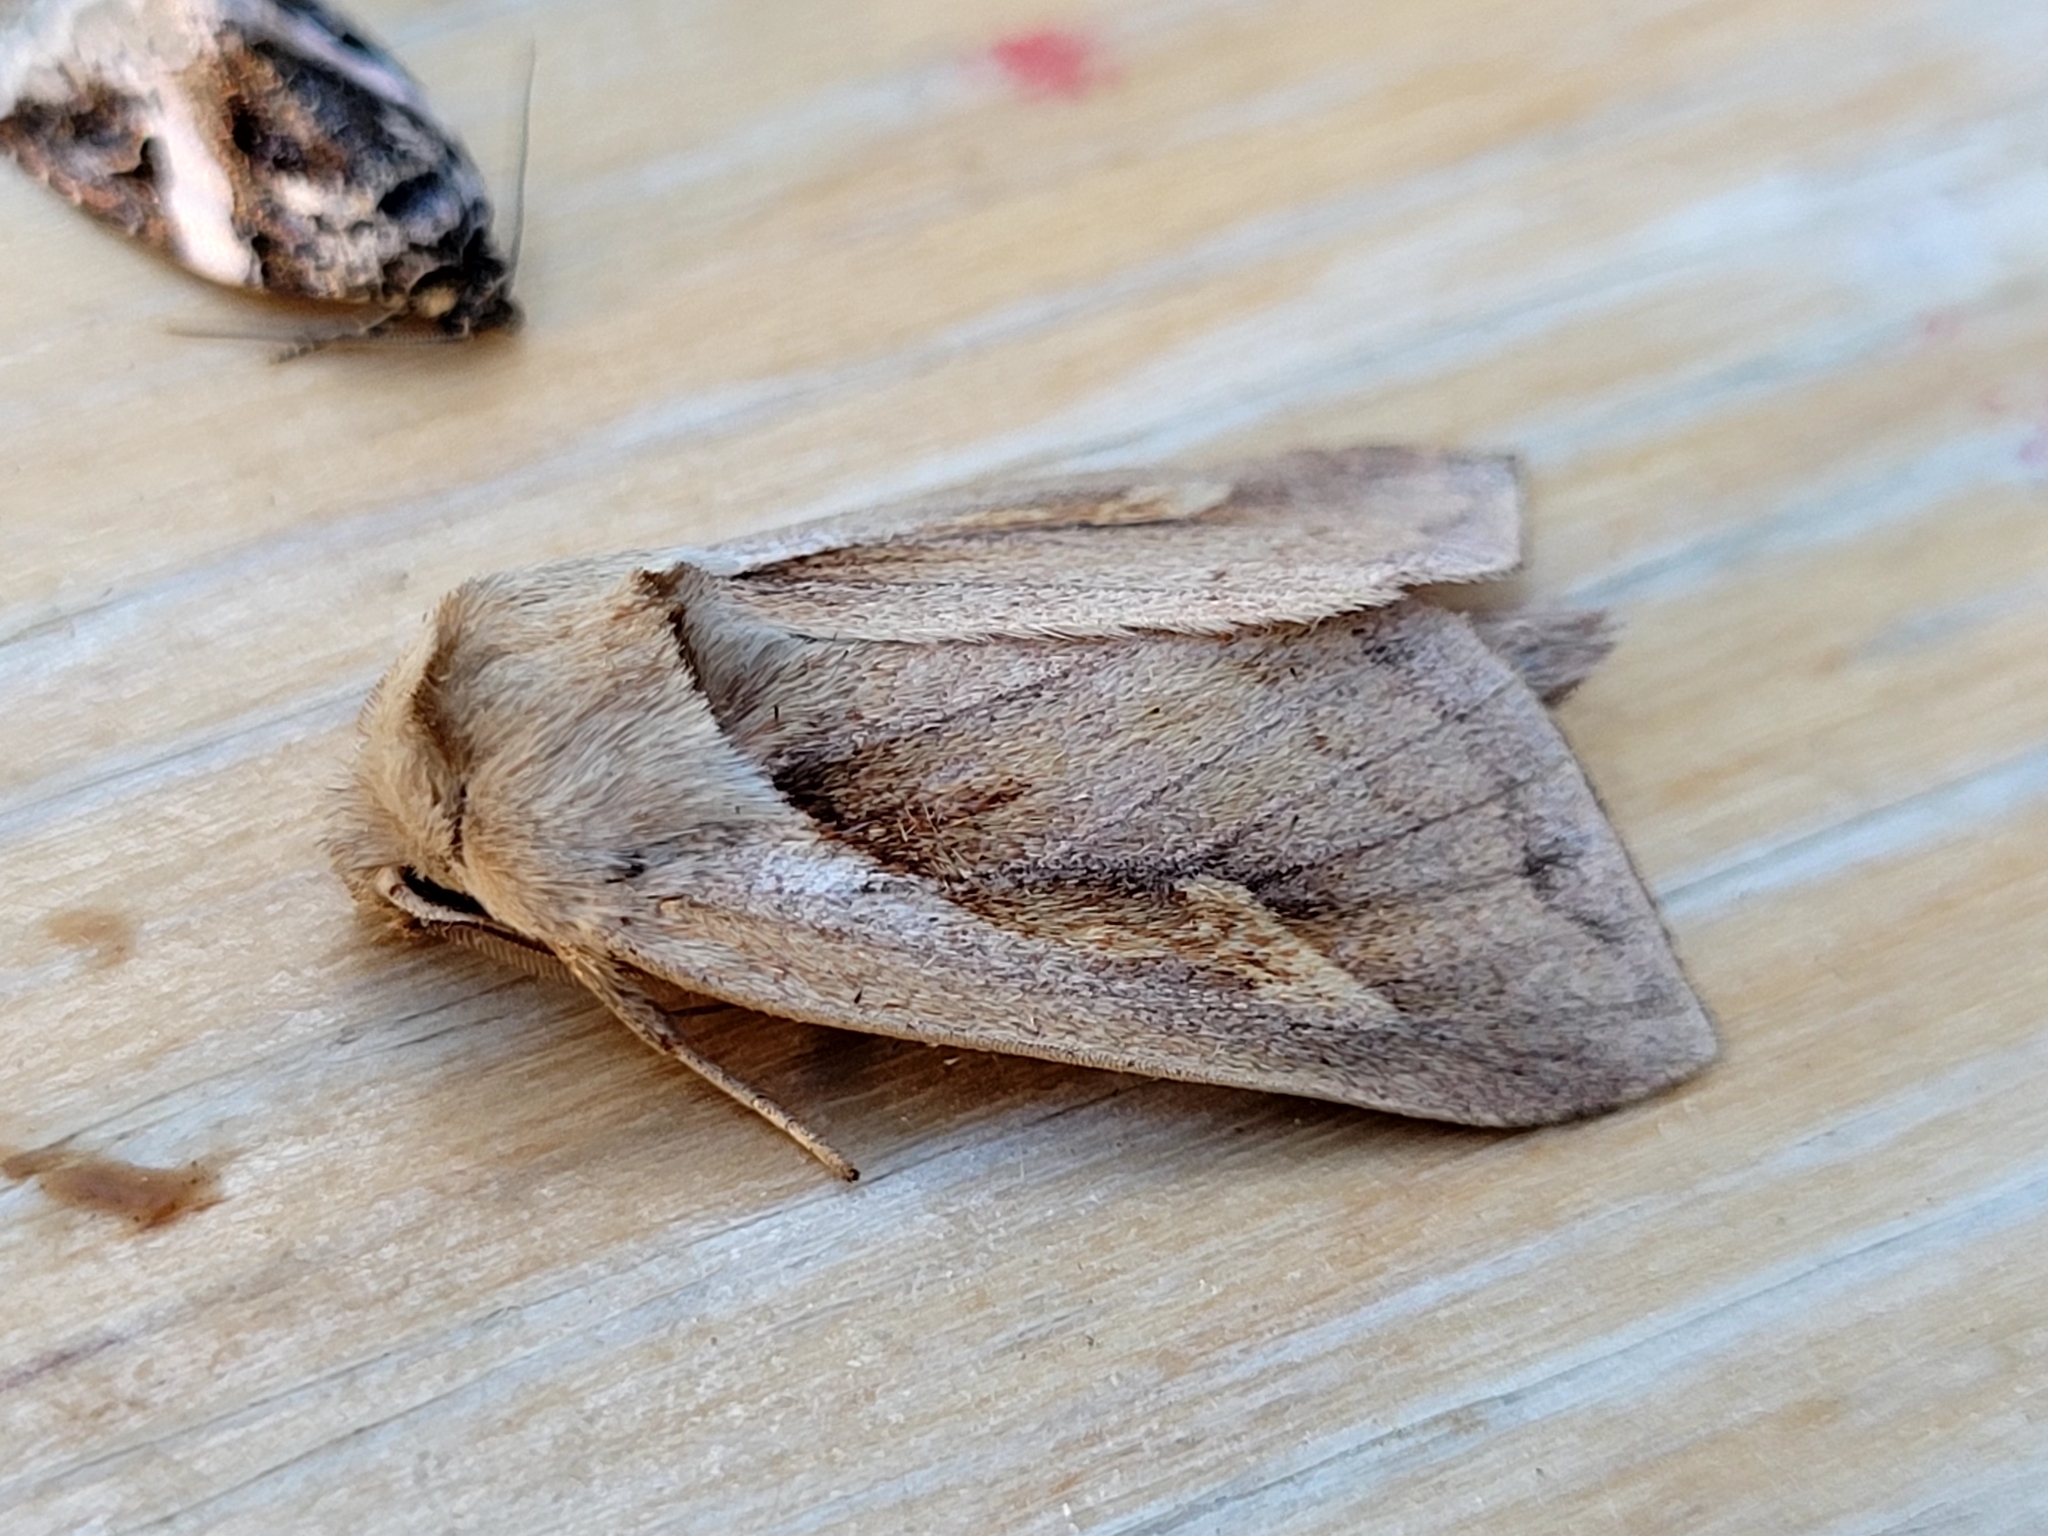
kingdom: Animalia
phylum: Arthropoda
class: Insecta
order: Lepidoptera
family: Noctuidae
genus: Bellura
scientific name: Bellura obliqua
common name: Cattail borer moth
